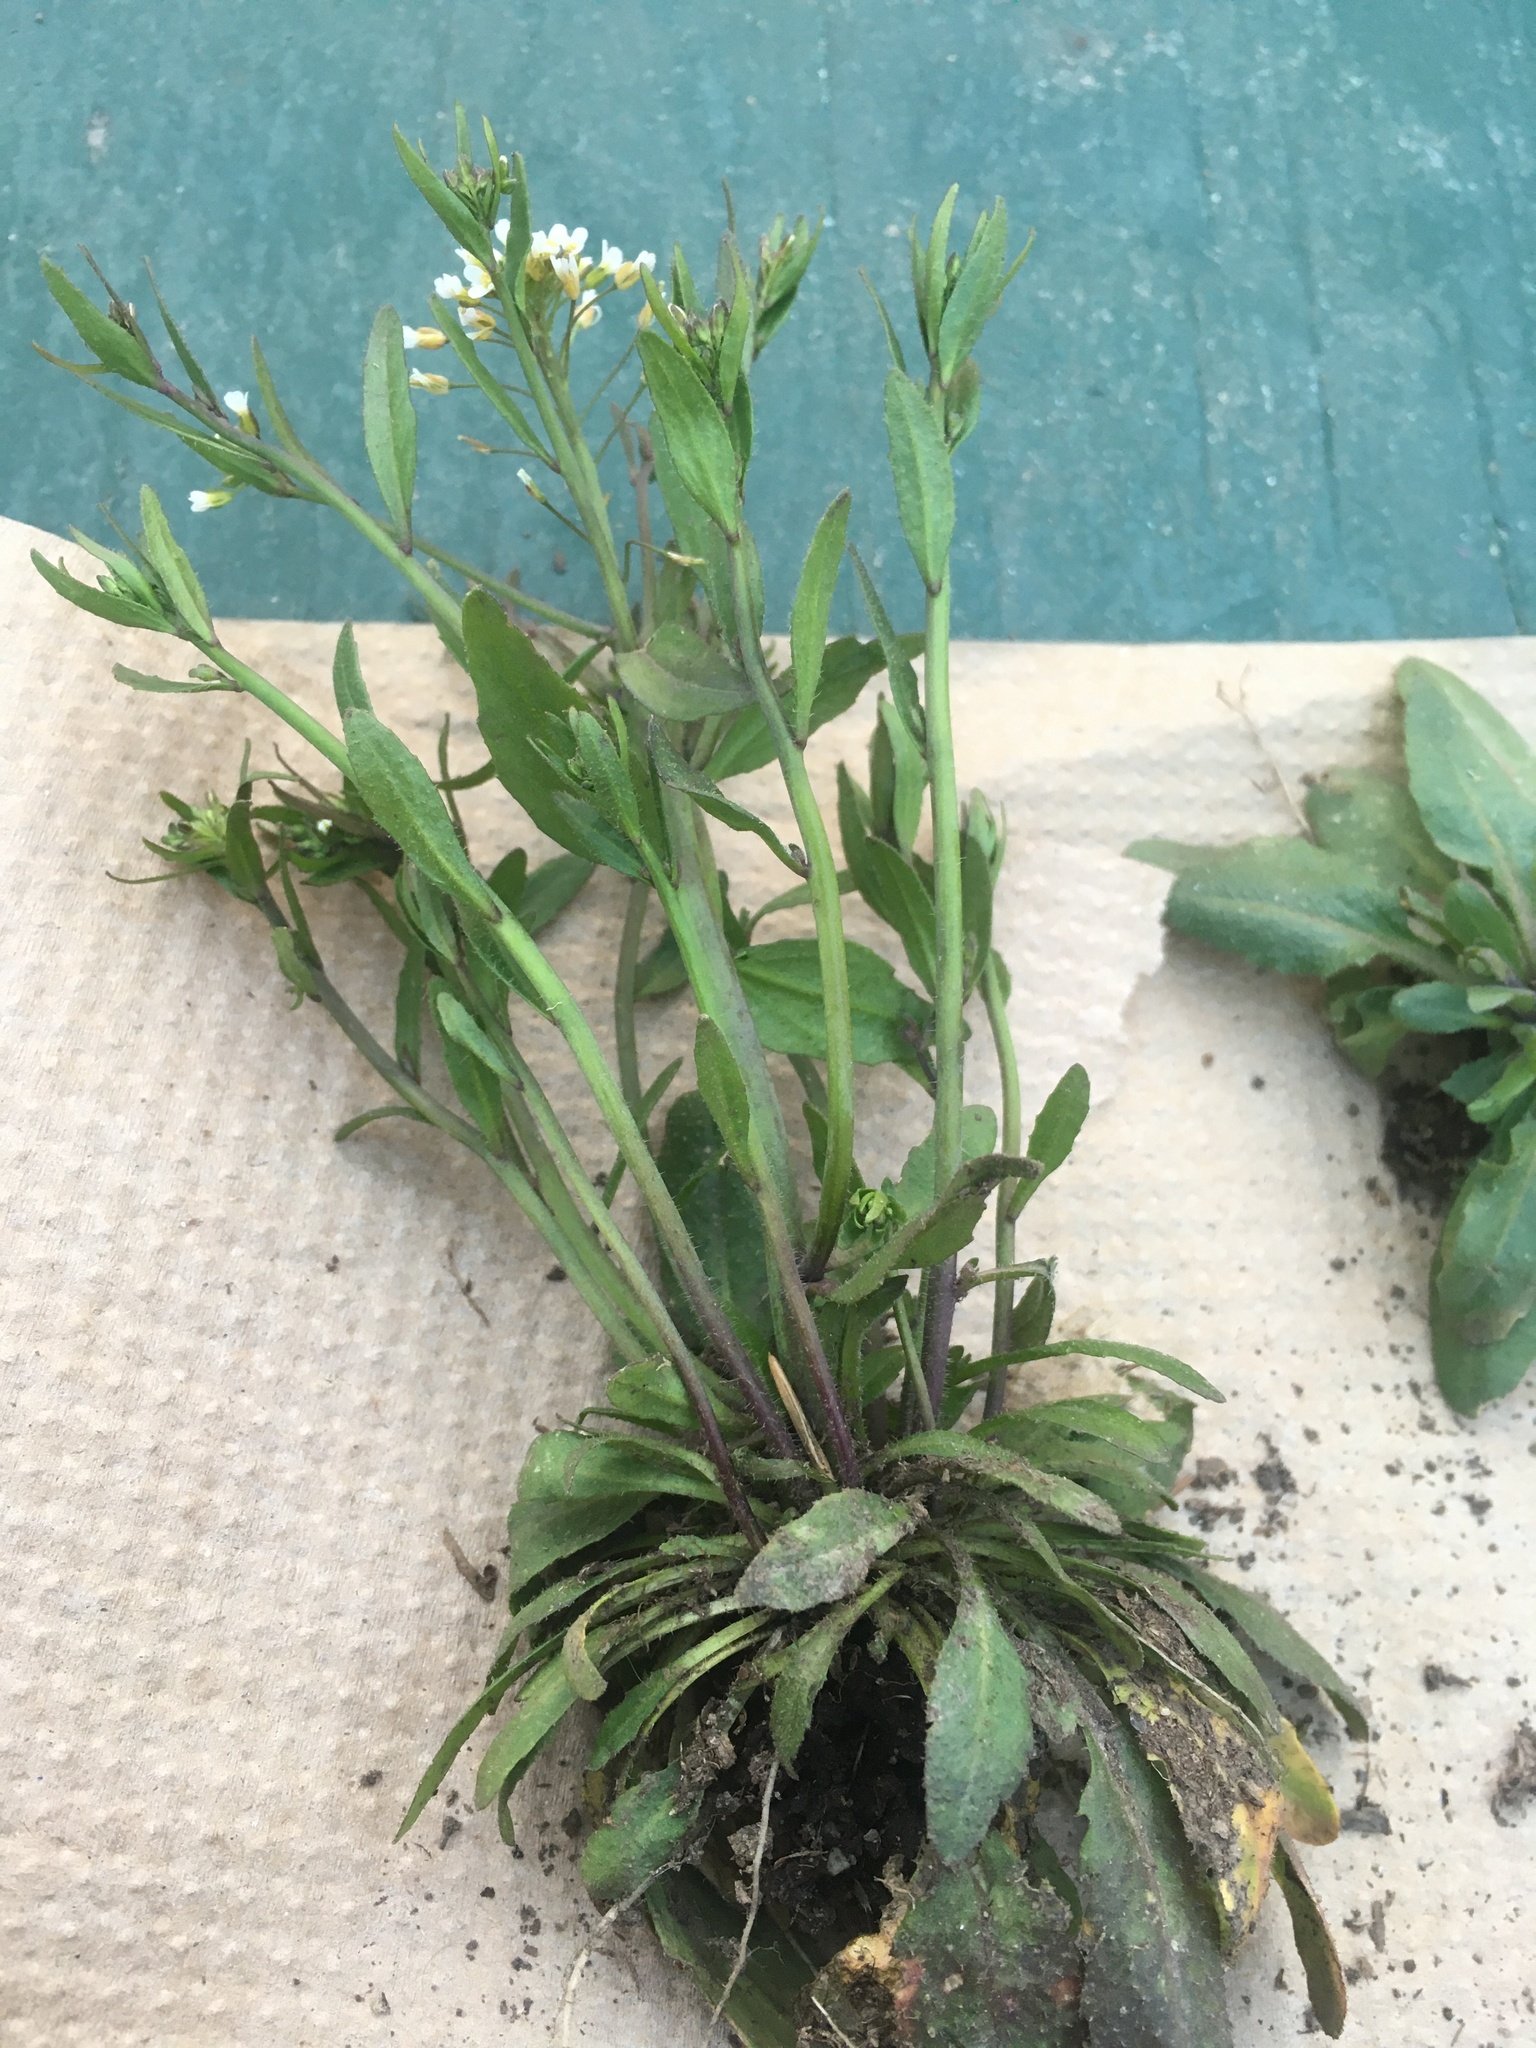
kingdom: Plantae
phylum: Tracheophyta
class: Magnoliopsida
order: Brassicales
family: Brassicaceae
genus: Arabidopsis
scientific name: Arabidopsis thaliana
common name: Thale cress
